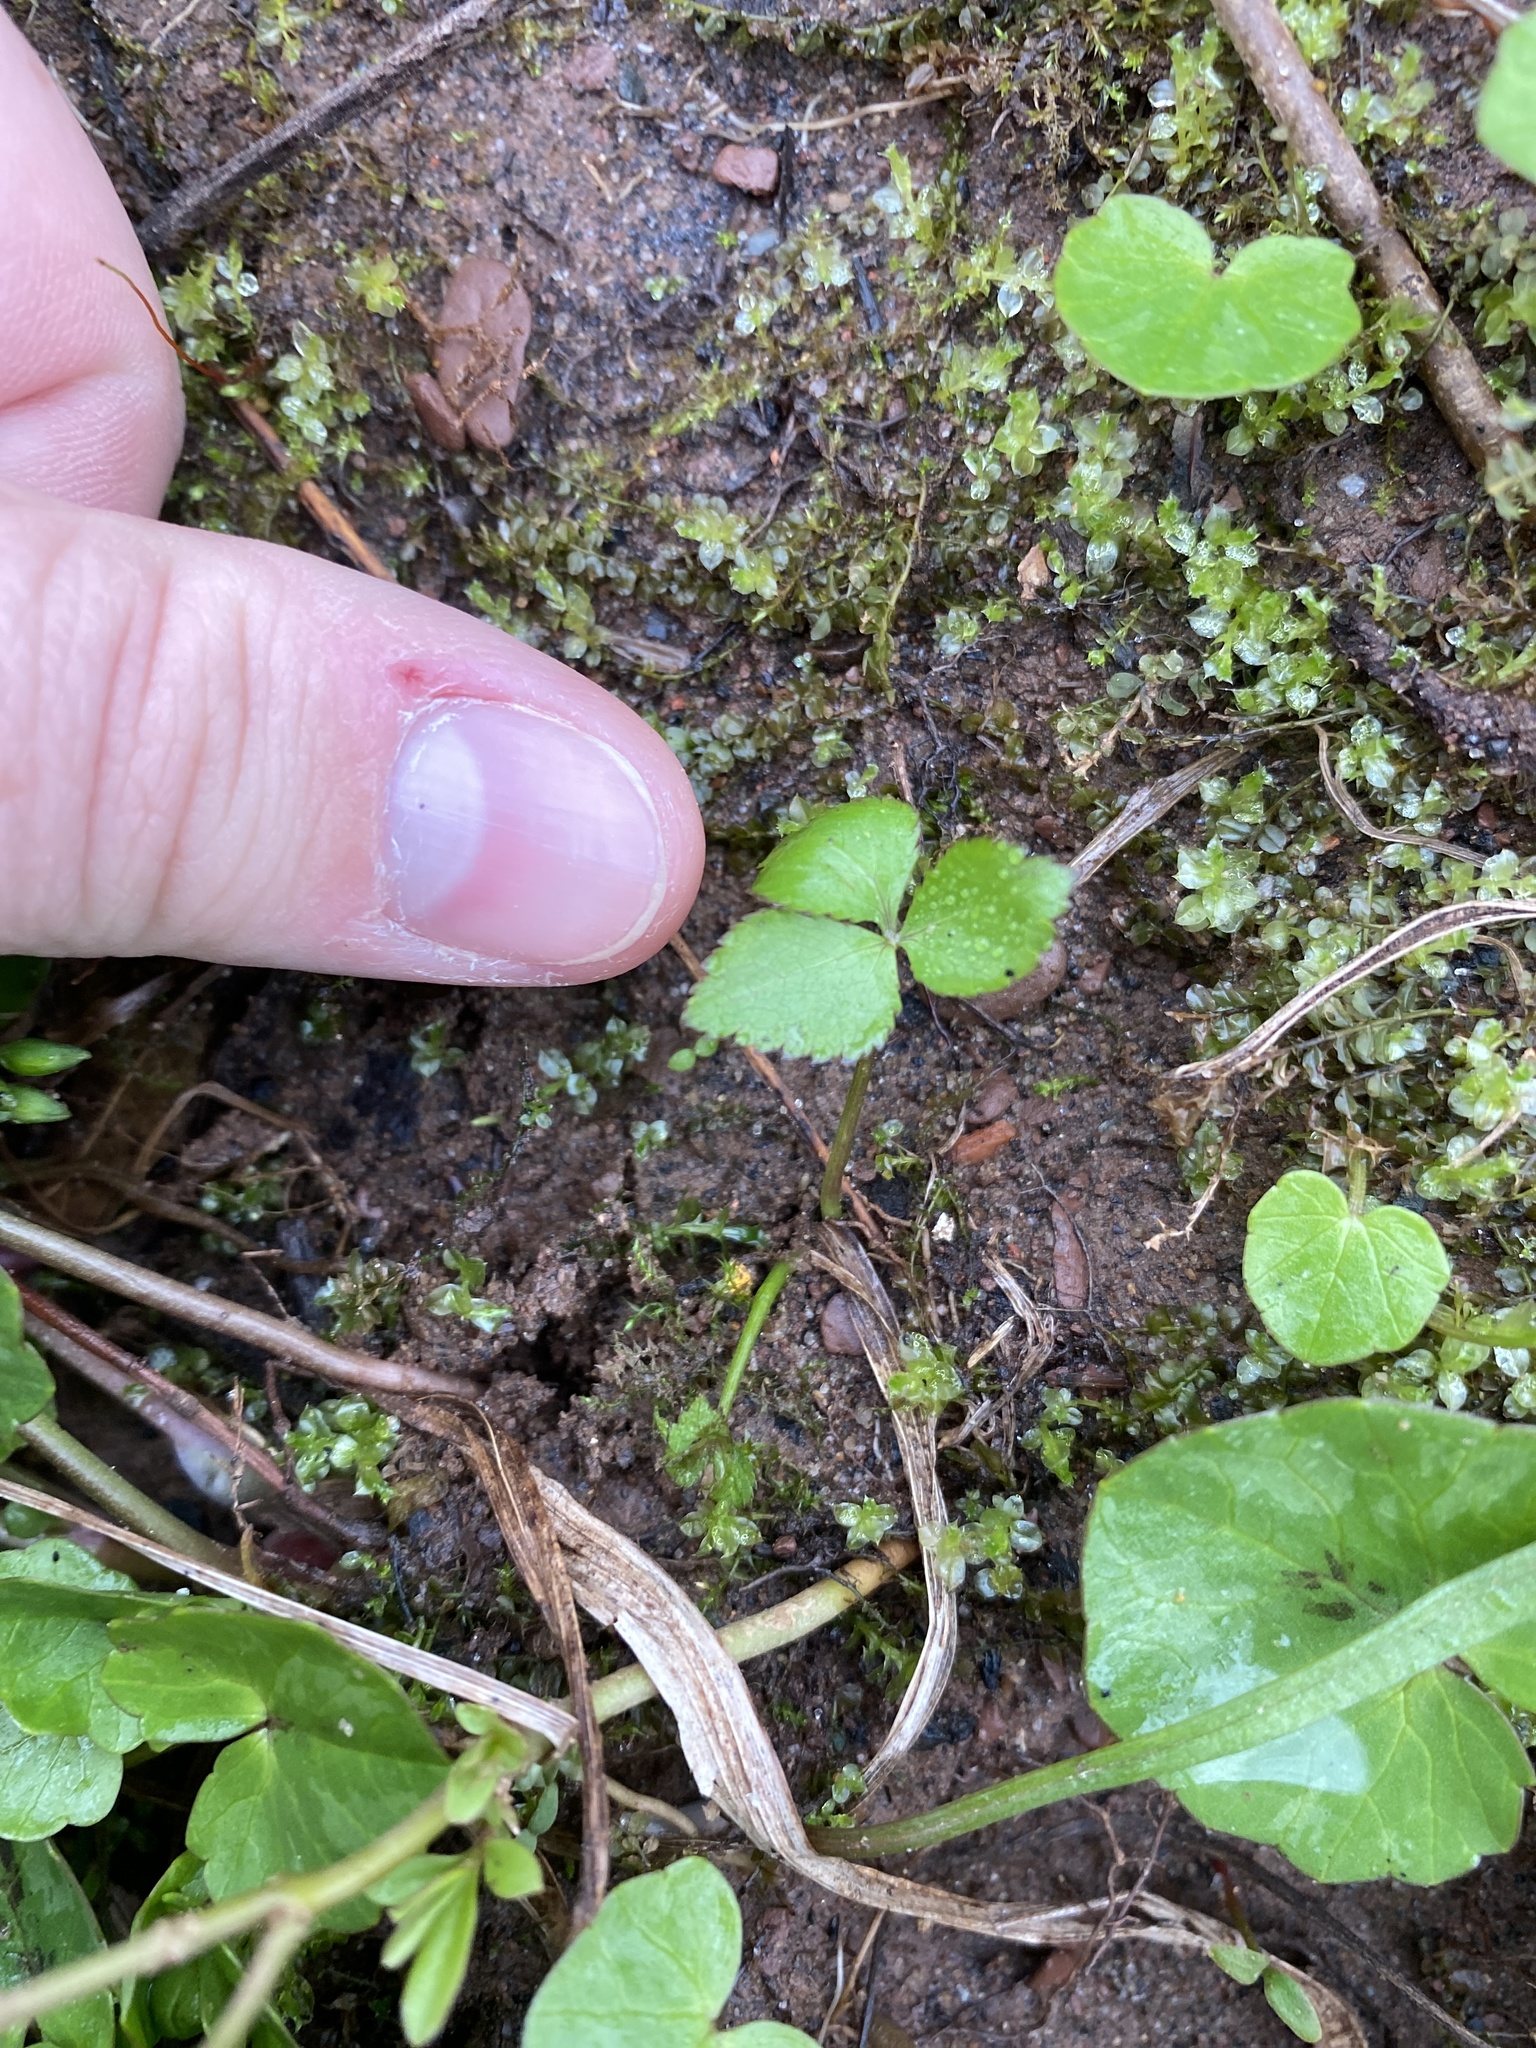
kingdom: Plantae
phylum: Tracheophyta
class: Magnoliopsida
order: Apiales
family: Apiaceae
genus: Cryptotaenia
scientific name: Cryptotaenia canadensis
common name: Honewort
